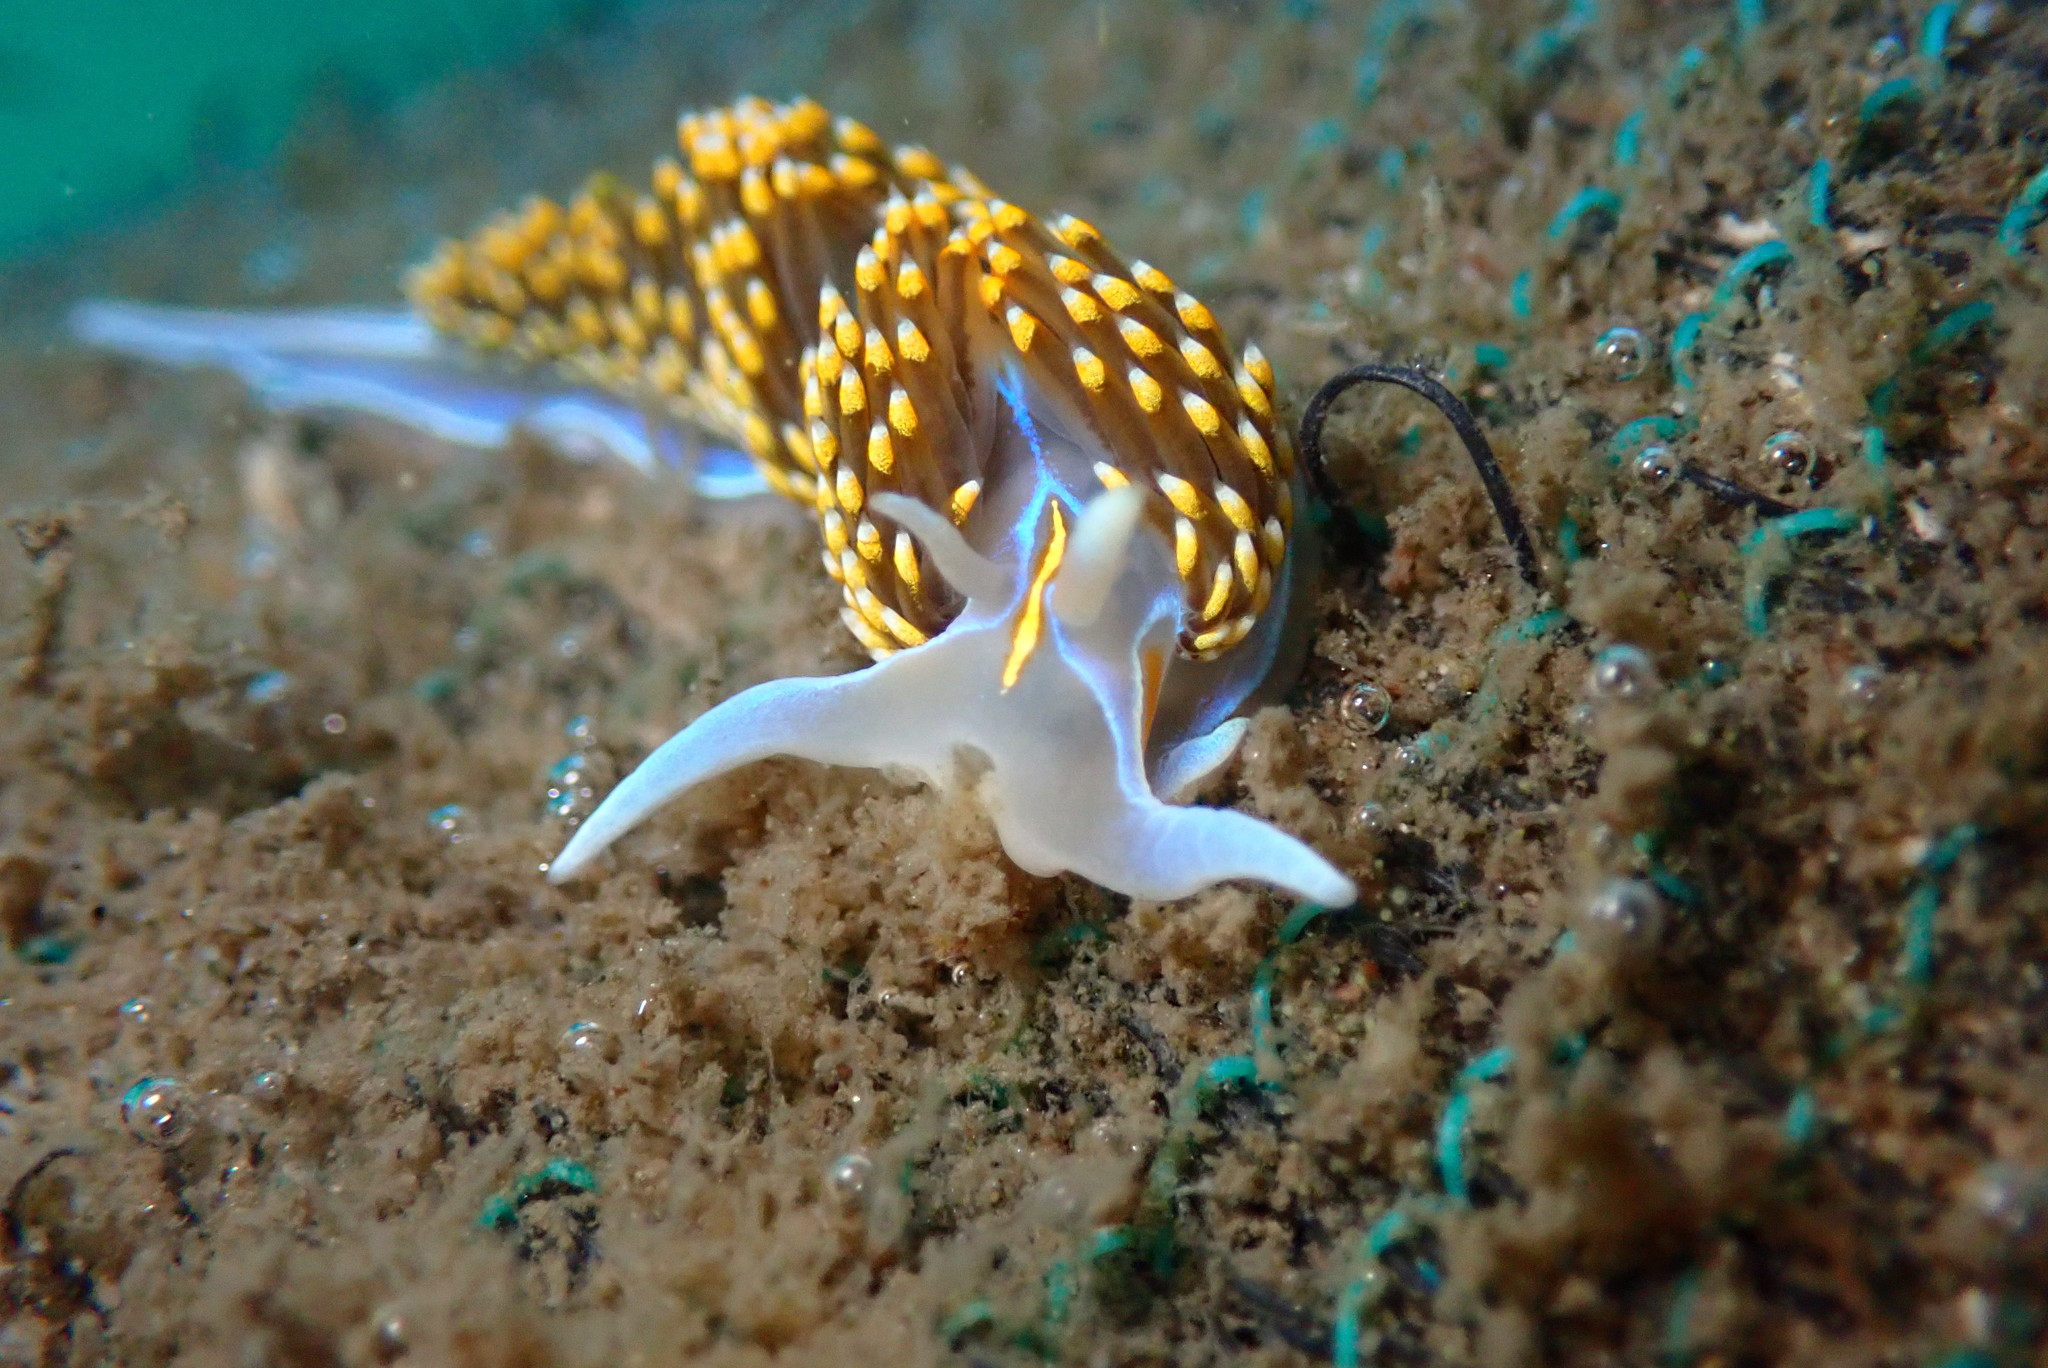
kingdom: Animalia
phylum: Mollusca
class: Gastropoda
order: Nudibranchia
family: Myrrhinidae
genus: Hermissenda
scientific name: Hermissenda opalescens
